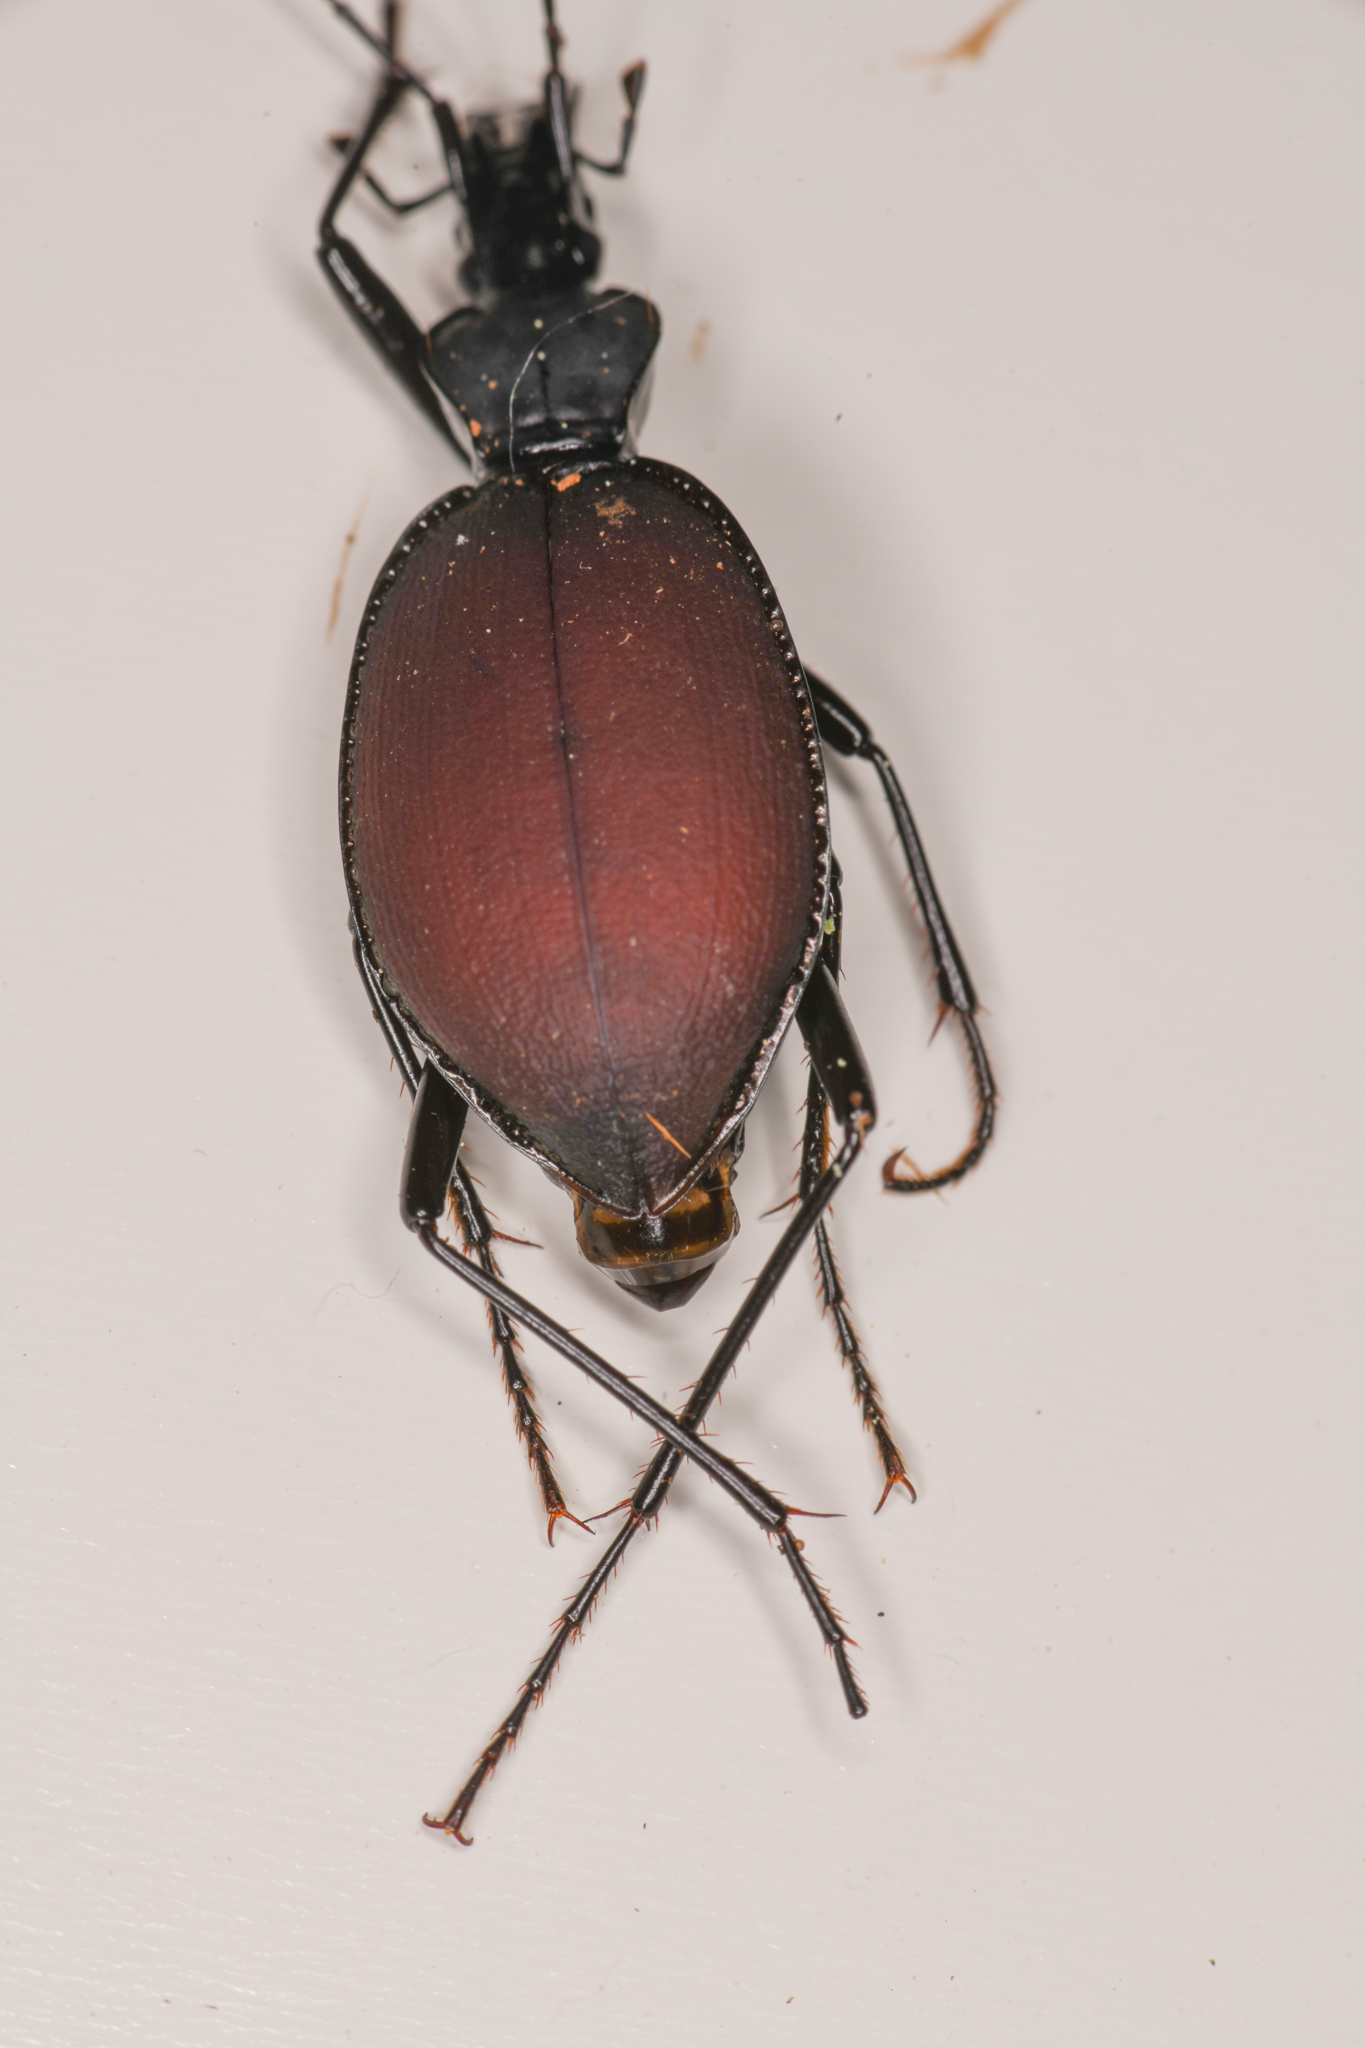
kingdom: Animalia
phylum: Arthropoda
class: Insecta
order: Coleoptera
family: Carabidae
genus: Scaphinotus
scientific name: Scaphinotus angusticollis
